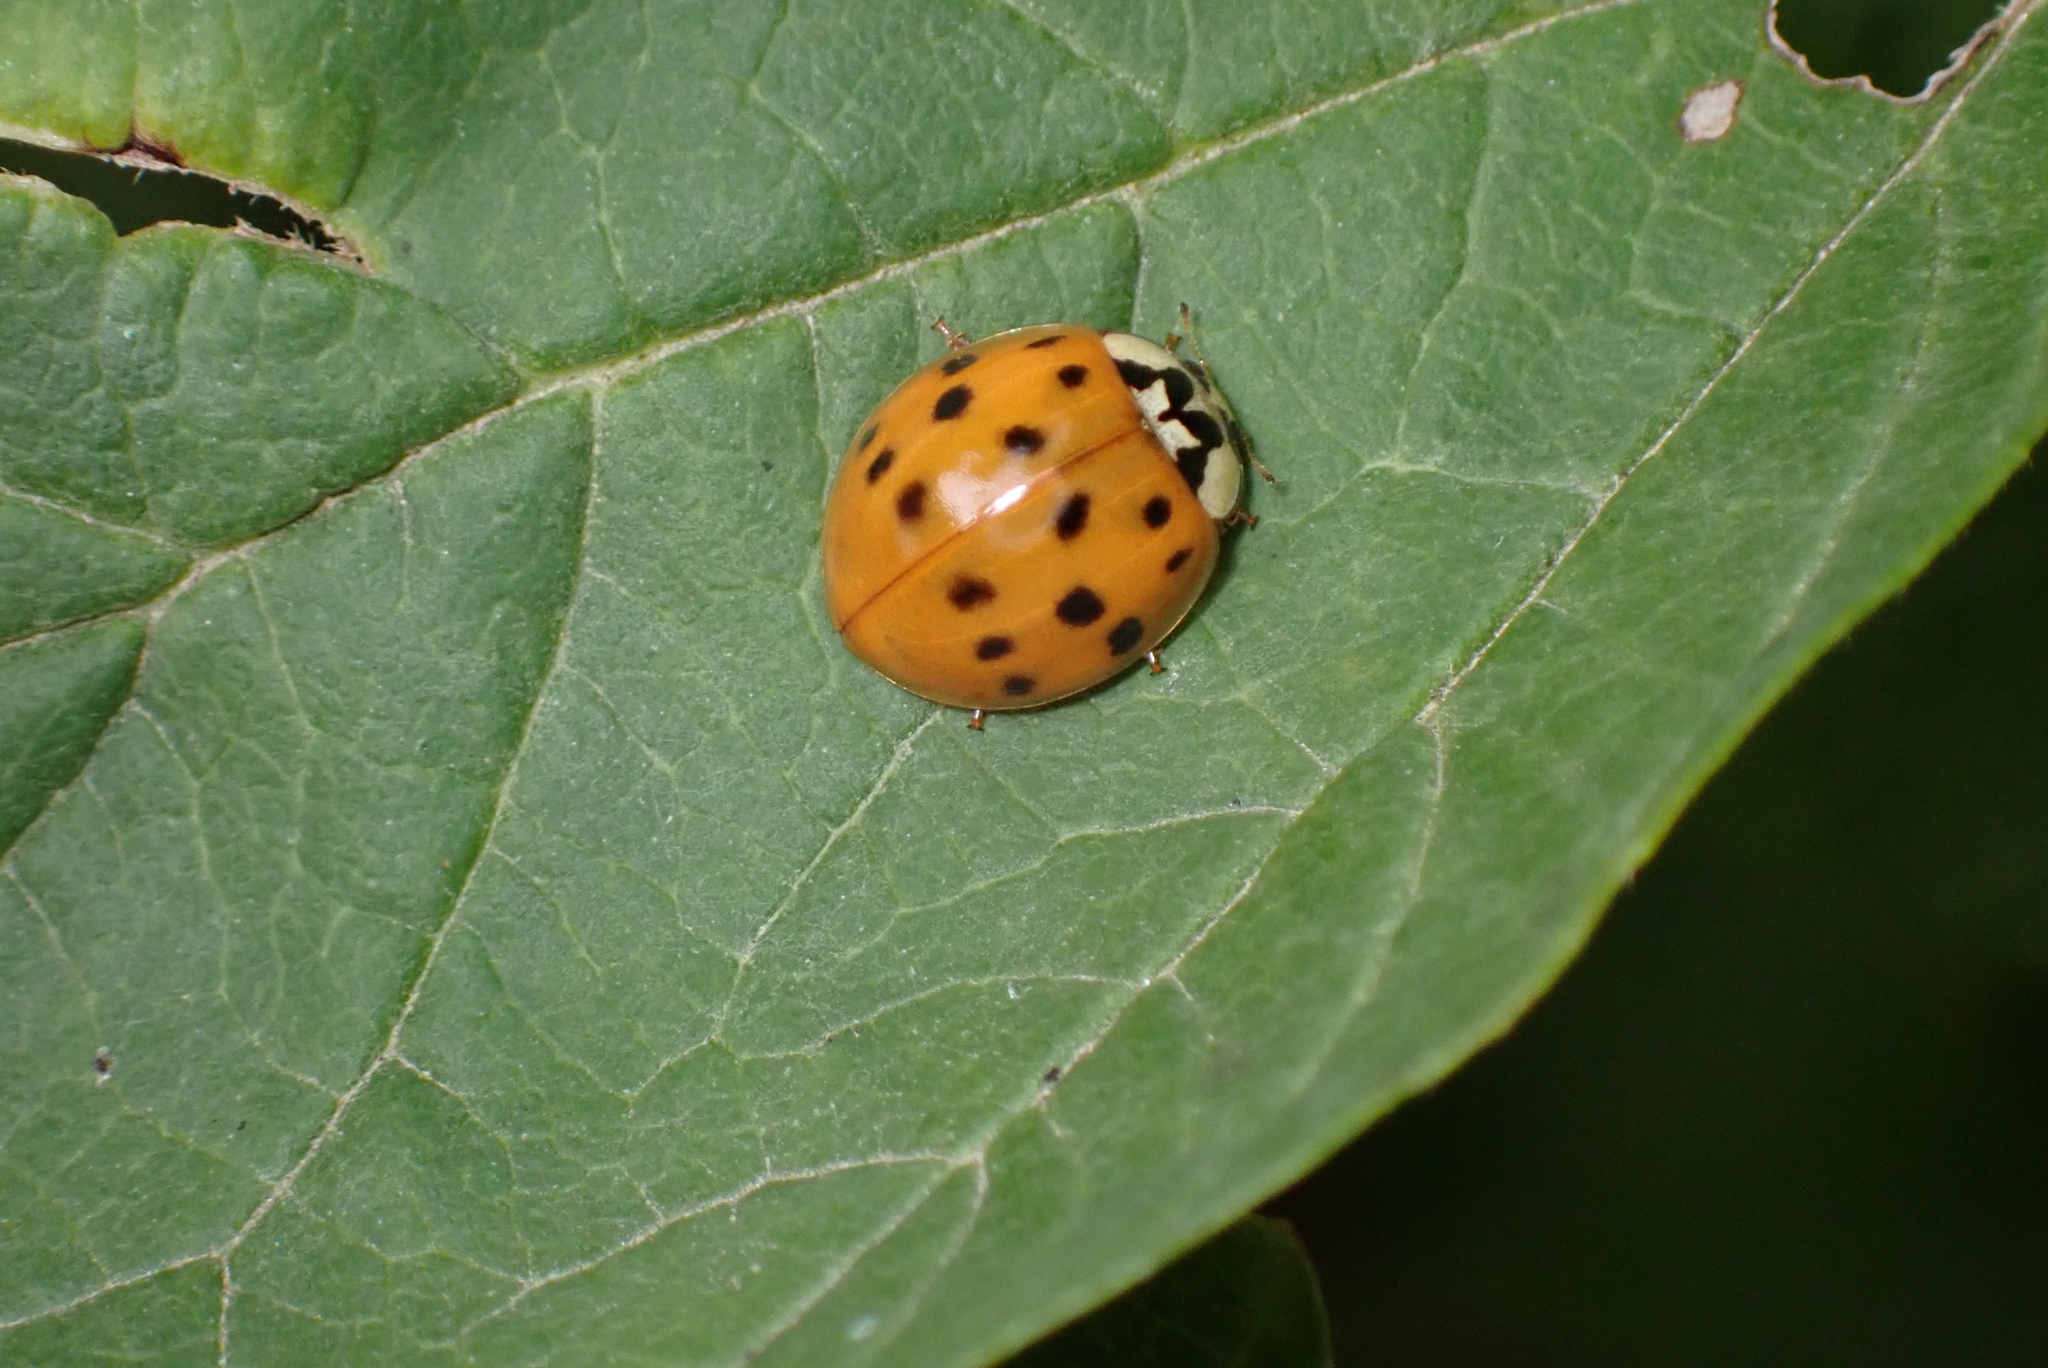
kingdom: Animalia
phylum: Arthropoda
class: Insecta
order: Coleoptera
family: Coccinellidae
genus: Harmonia
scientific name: Harmonia axyridis
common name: Harlequin ladybird
